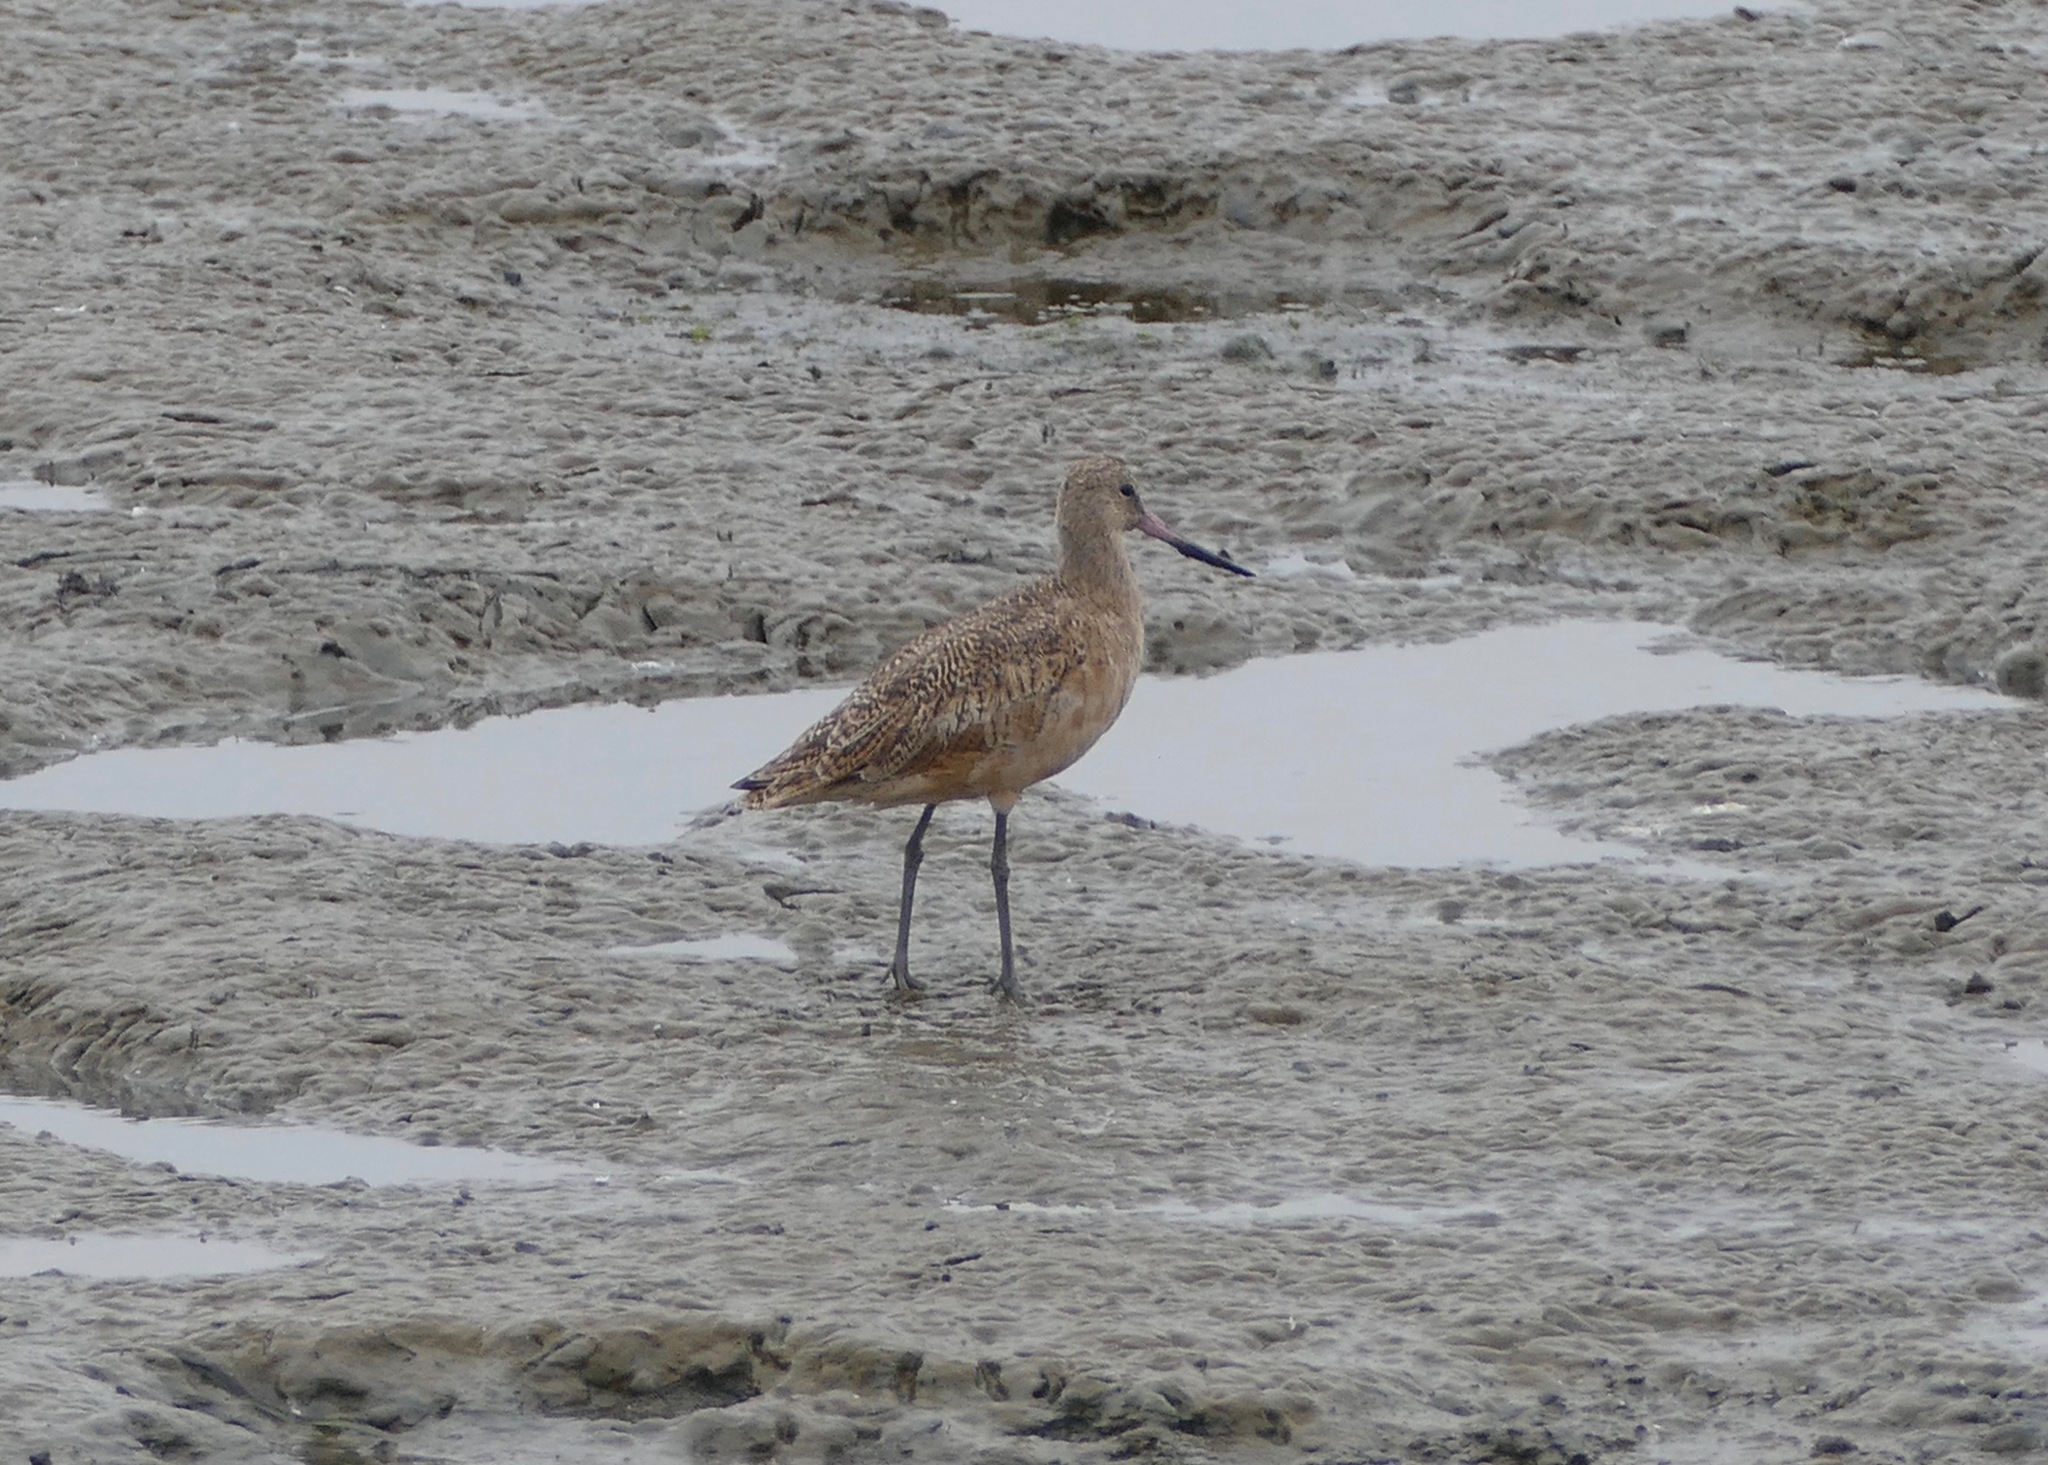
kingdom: Animalia
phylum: Chordata
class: Aves
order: Charadriiformes
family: Scolopacidae
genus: Limosa
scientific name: Limosa fedoa
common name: Marbled godwit
